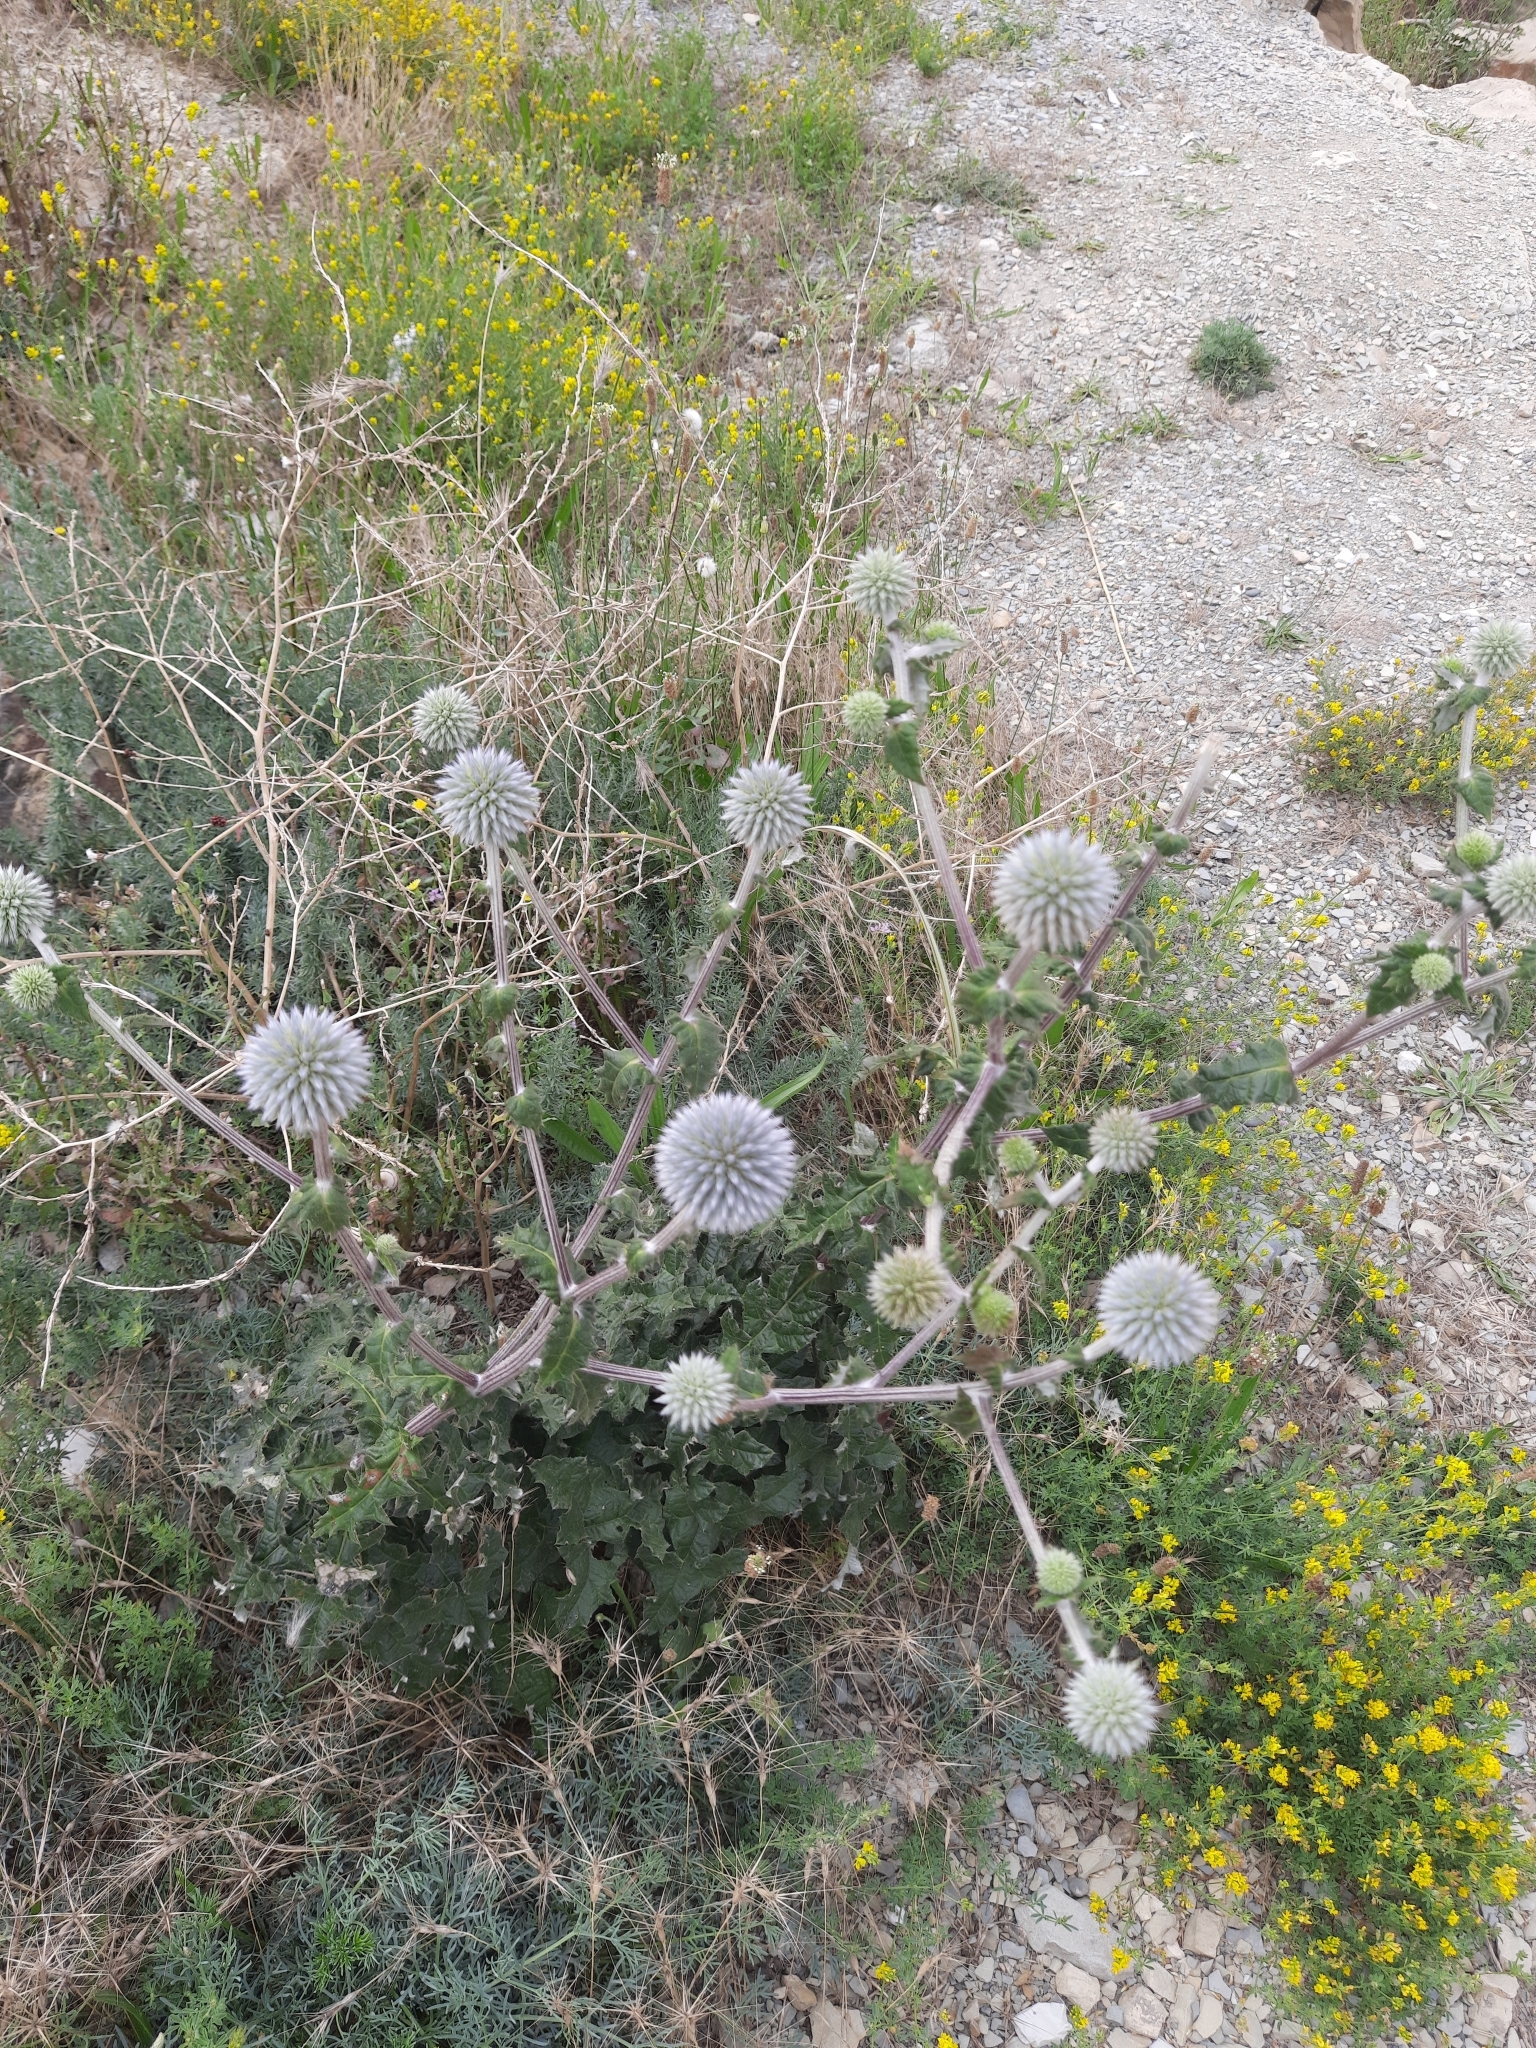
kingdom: Plantae
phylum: Tracheophyta
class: Magnoliopsida
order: Asterales
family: Asteraceae
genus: Echinops
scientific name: Echinops sphaerocephalus
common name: Glandular globe-thistle
